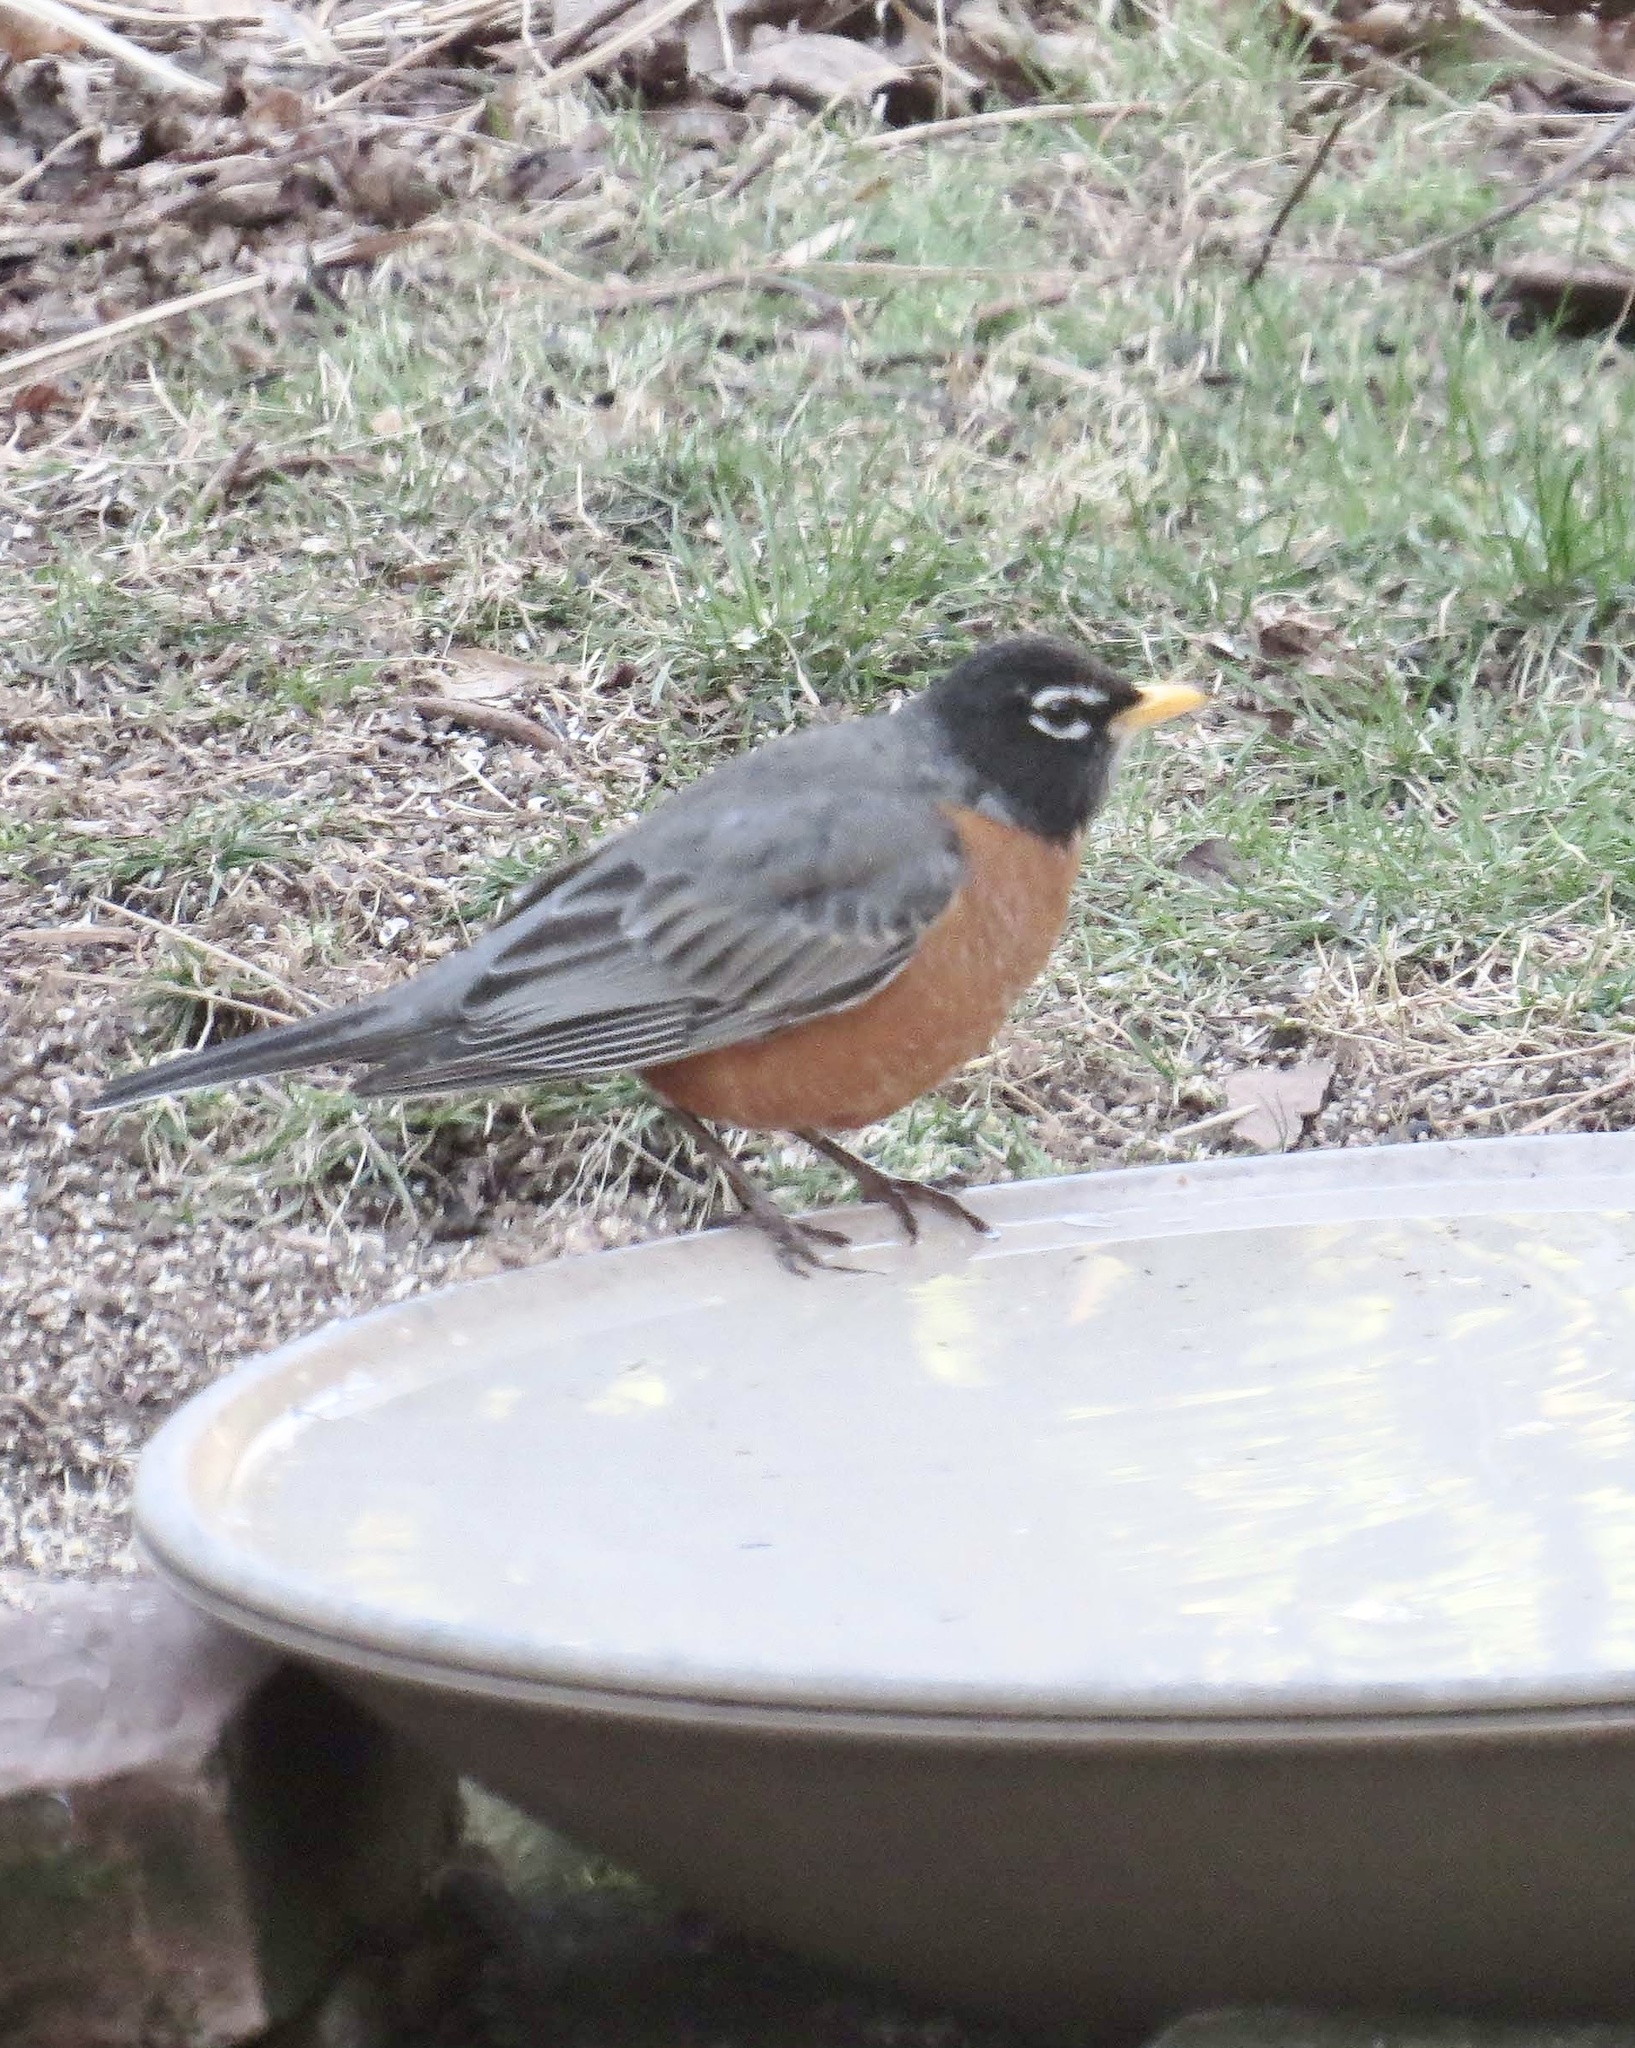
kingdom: Animalia
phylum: Chordata
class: Aves
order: Passeriformes
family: Turdidae
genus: Turdus
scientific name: Turdus migratorius
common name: American robin
